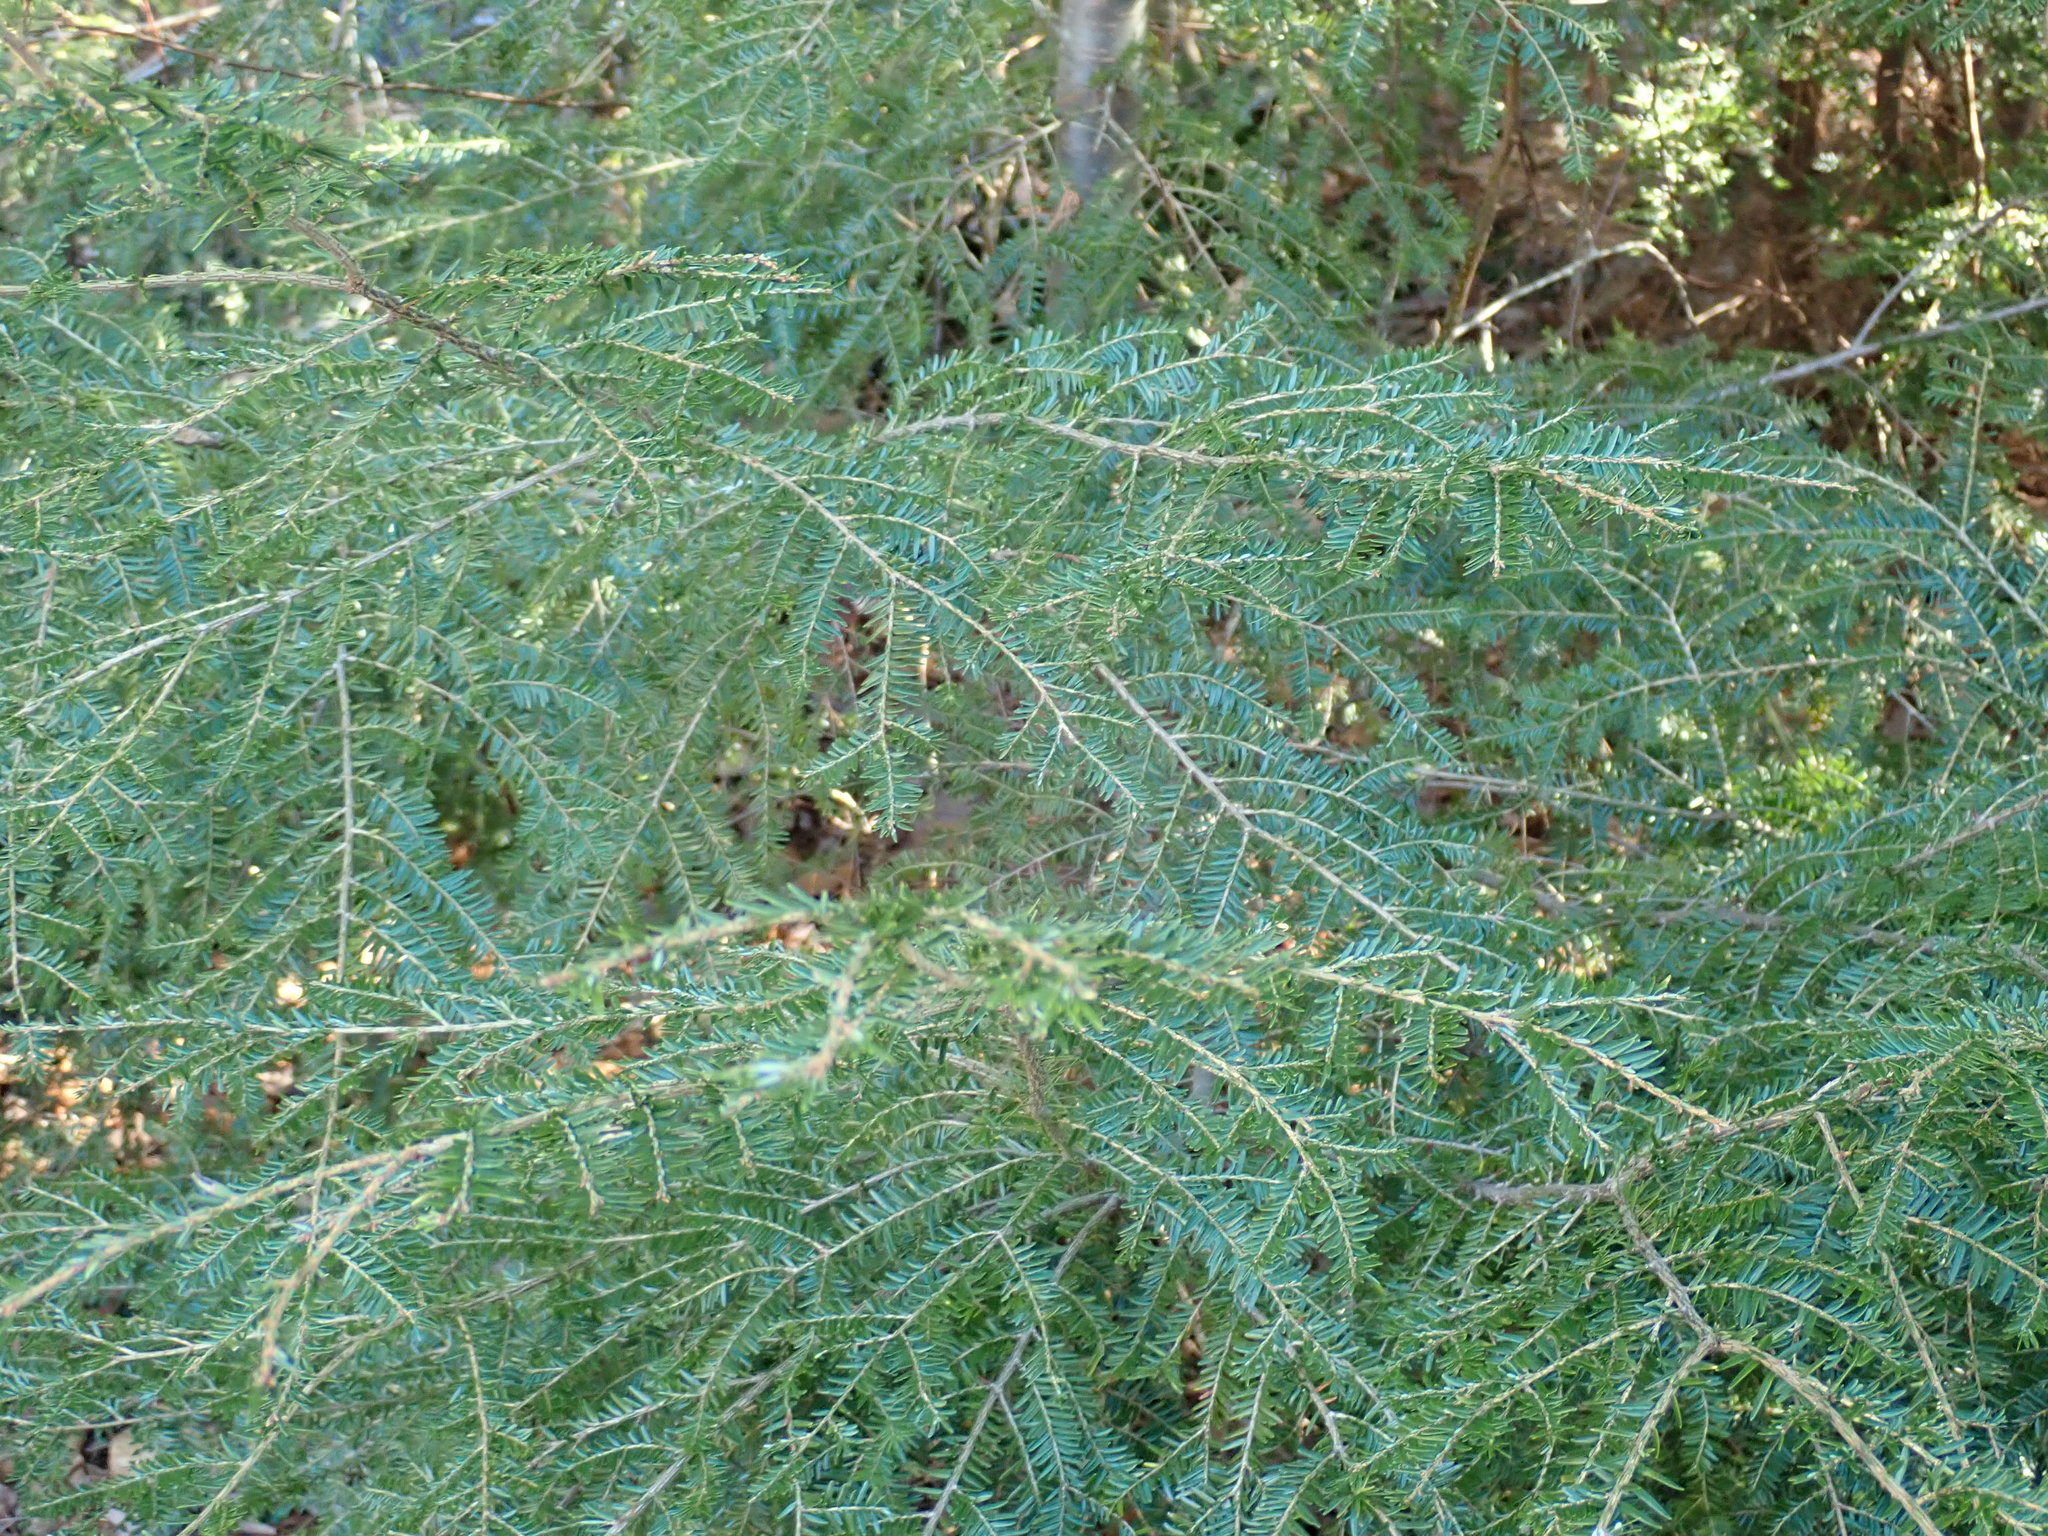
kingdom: Plantae
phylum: Tracheophyta
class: Pinopsida
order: Pinales
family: Pinaceae
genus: Tsuga
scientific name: Tsuga canadensis
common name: Eastern hemlock
